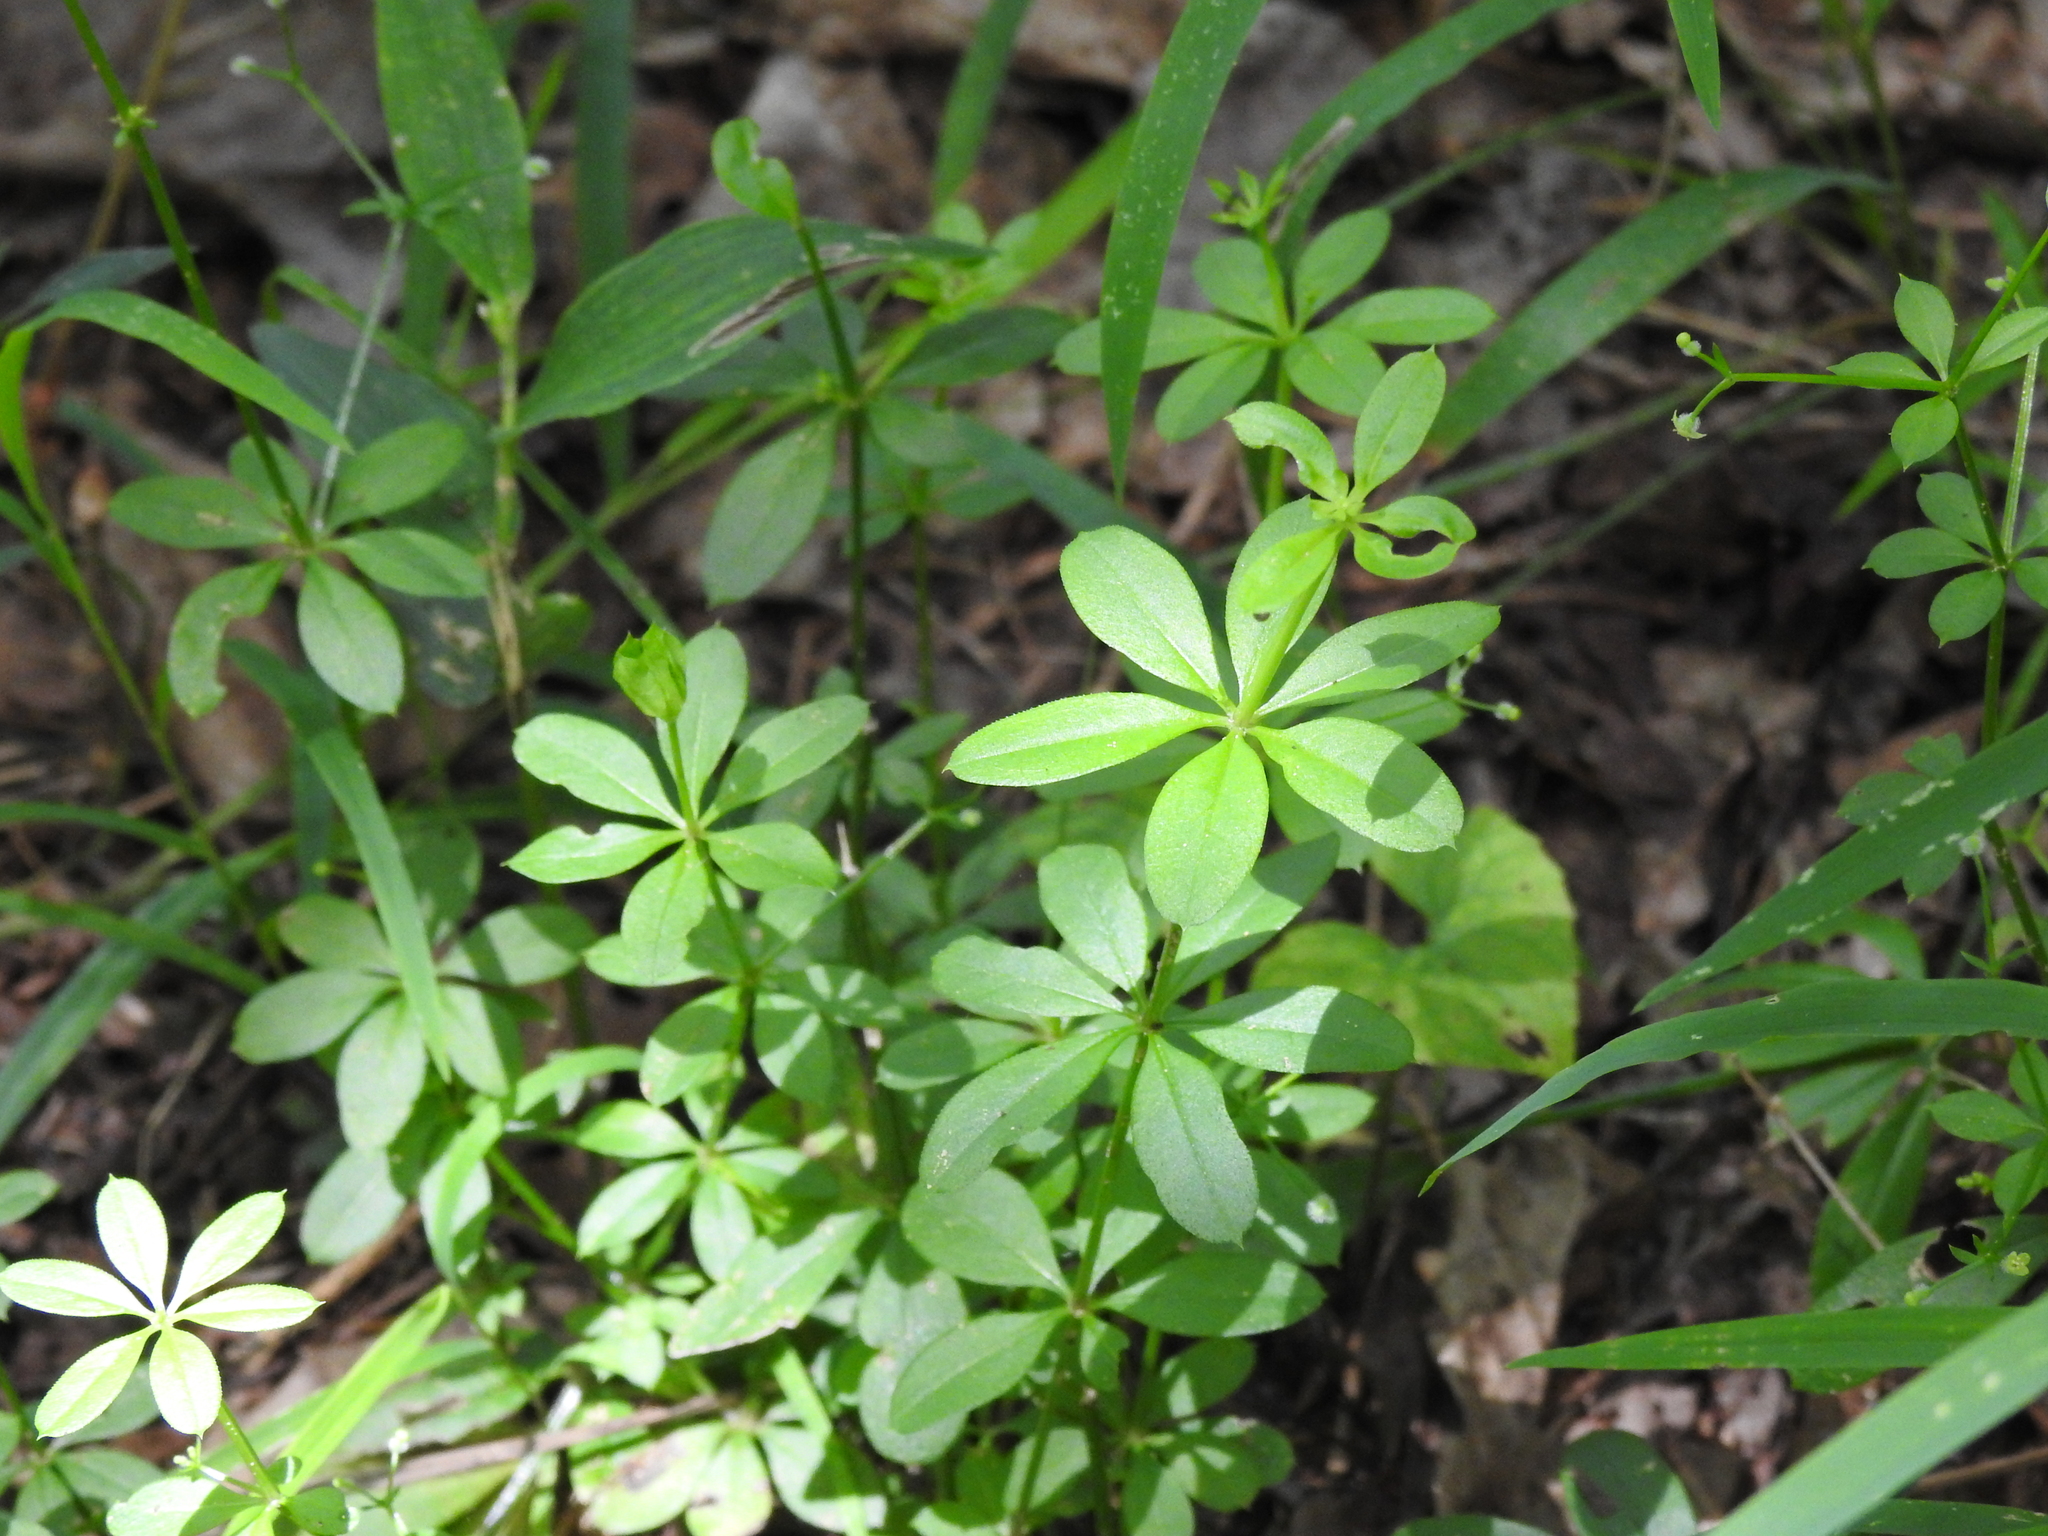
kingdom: Plantae
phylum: Tracheophyta
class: Magnoliopsida
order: Gentianales
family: Rubiaceae
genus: Galium
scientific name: Galium triflorum
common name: Fragrant bedstraw
